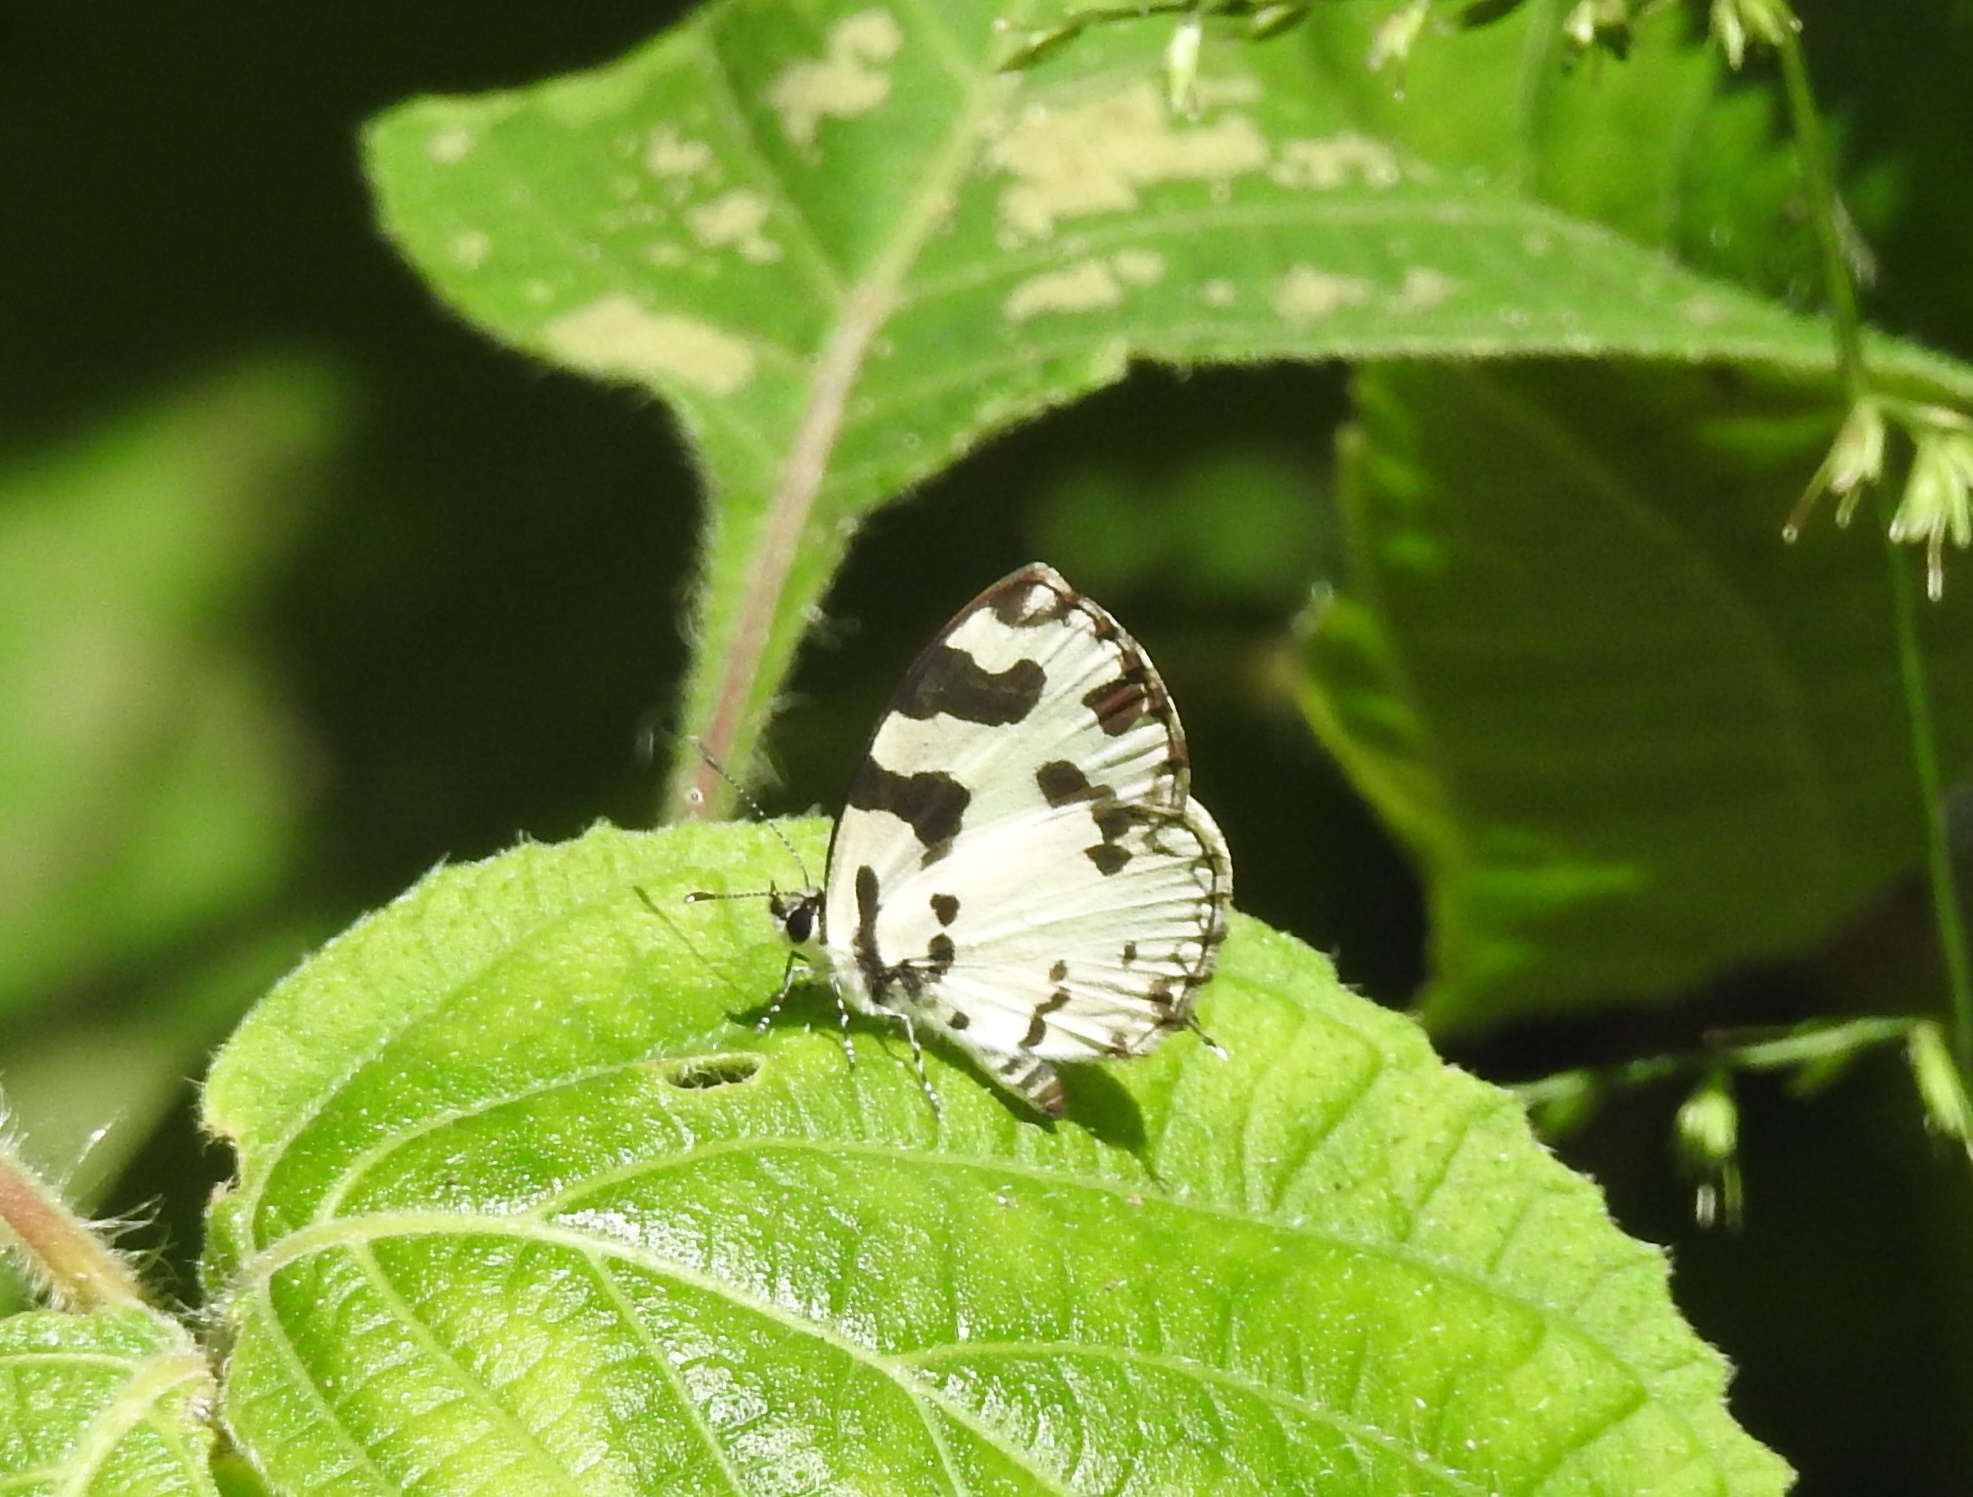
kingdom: Animalia
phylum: Arthropoda
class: Insecta
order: Lepidoptera
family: Lycaenidae
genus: Caleta
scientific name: Caleta decidia
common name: Angled pierrot
